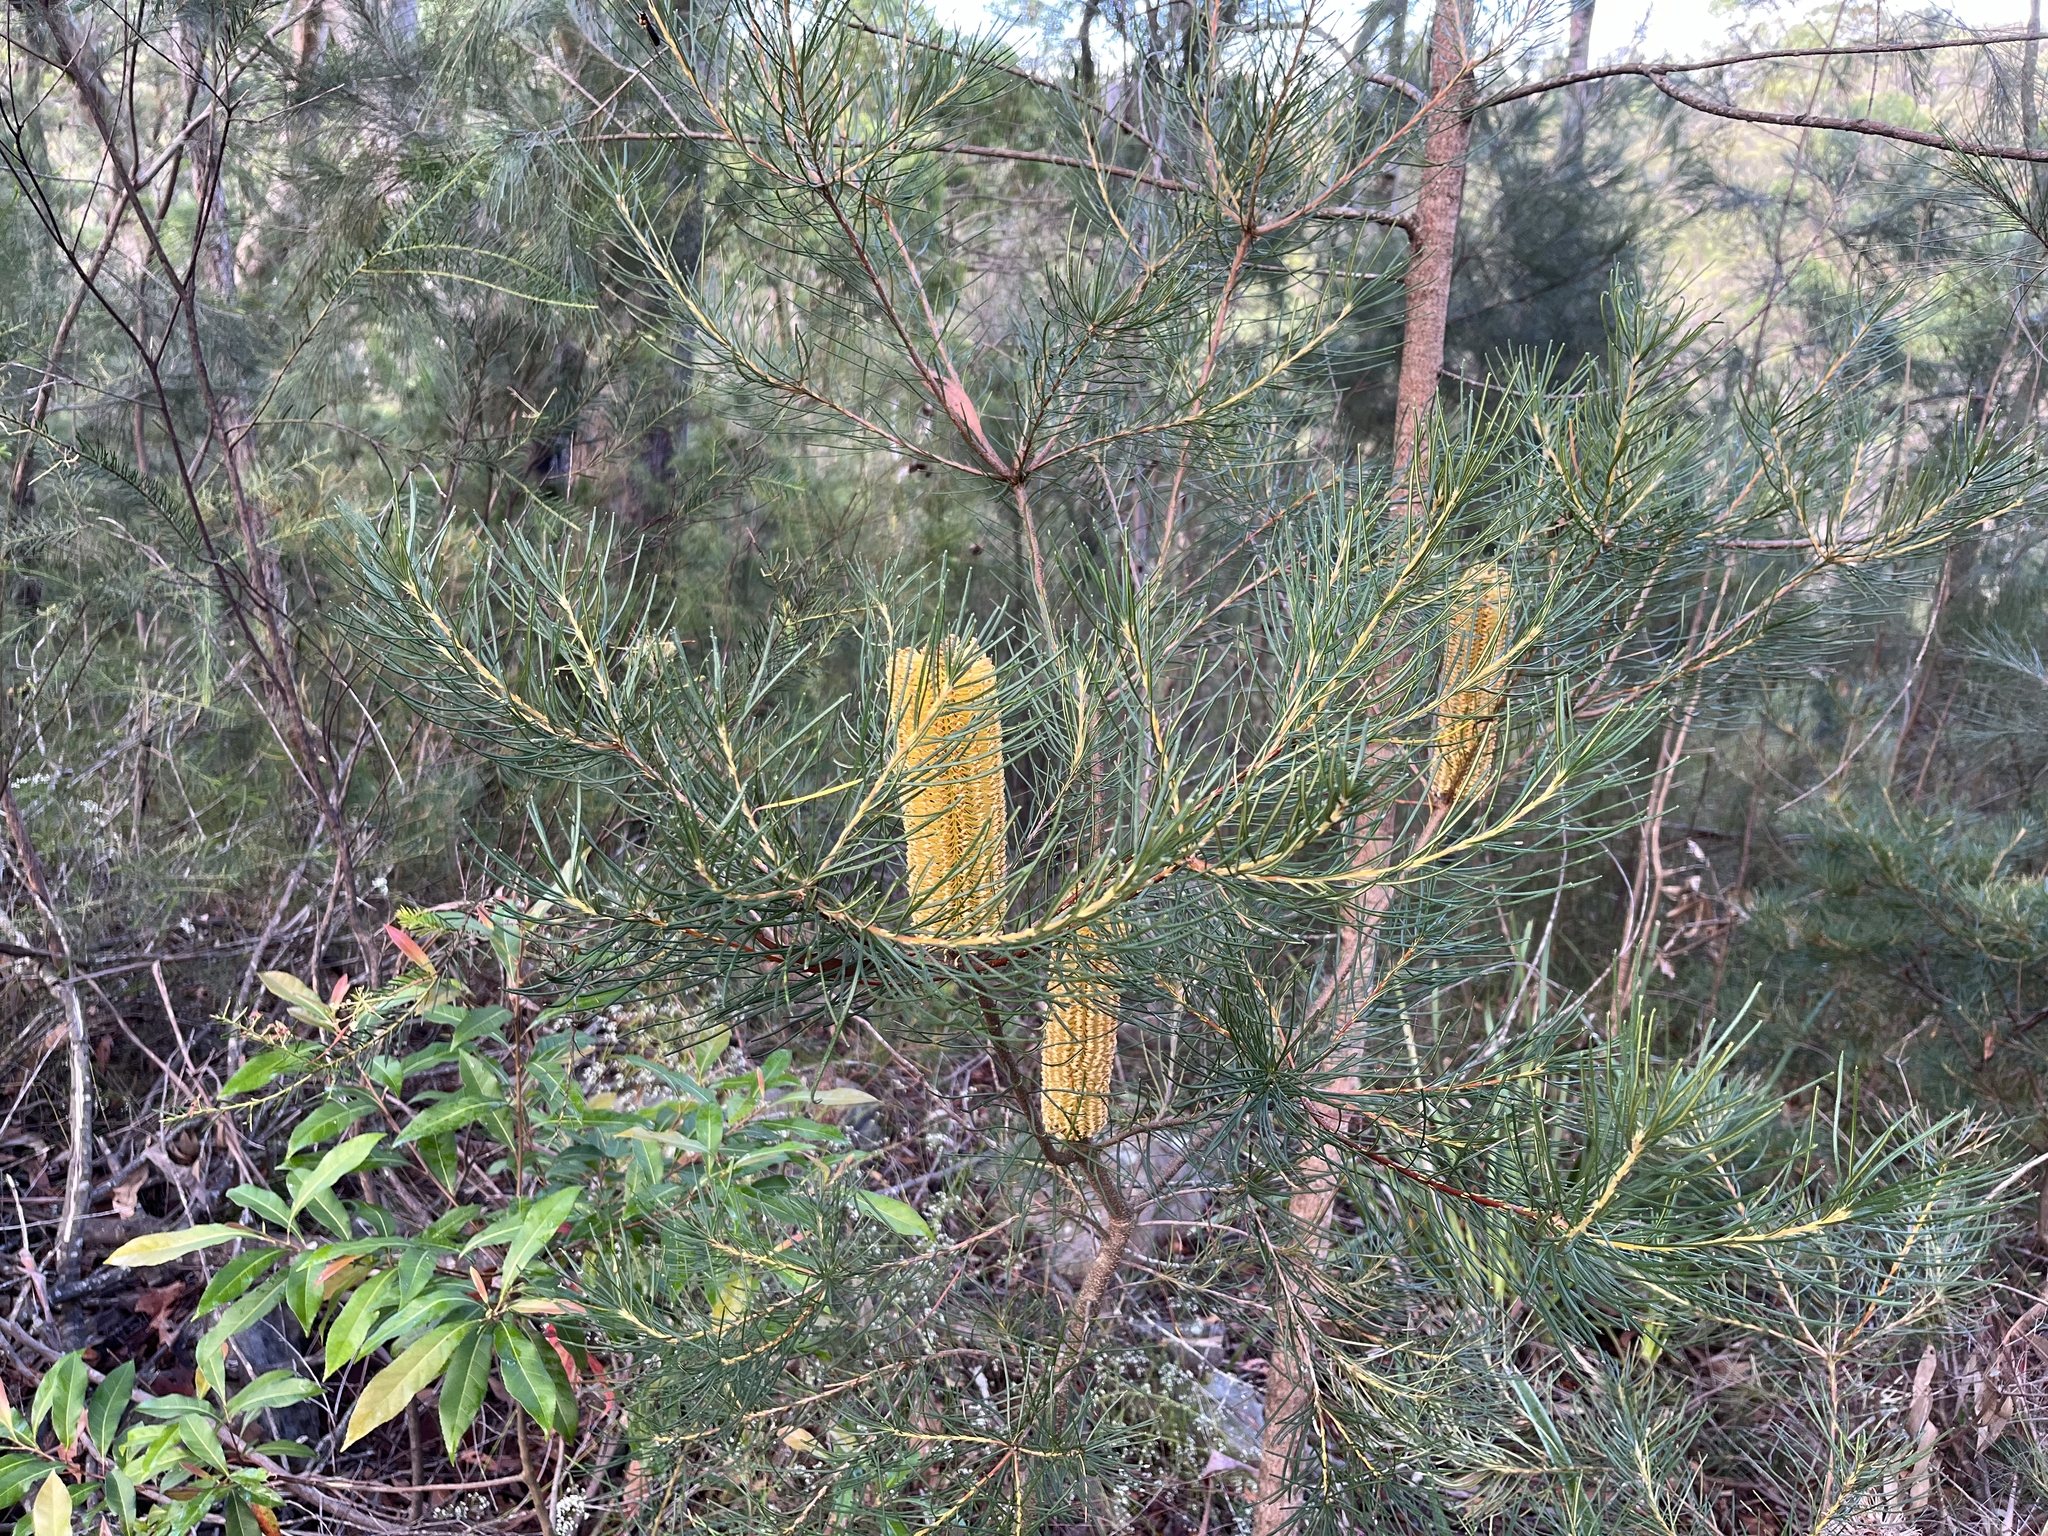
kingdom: Plantae
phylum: Tracheophyta
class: Magnoliopsida
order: Proteales
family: Proteaceae
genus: Banksia
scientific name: Banksia spinulosa
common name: Hairpin banksia
